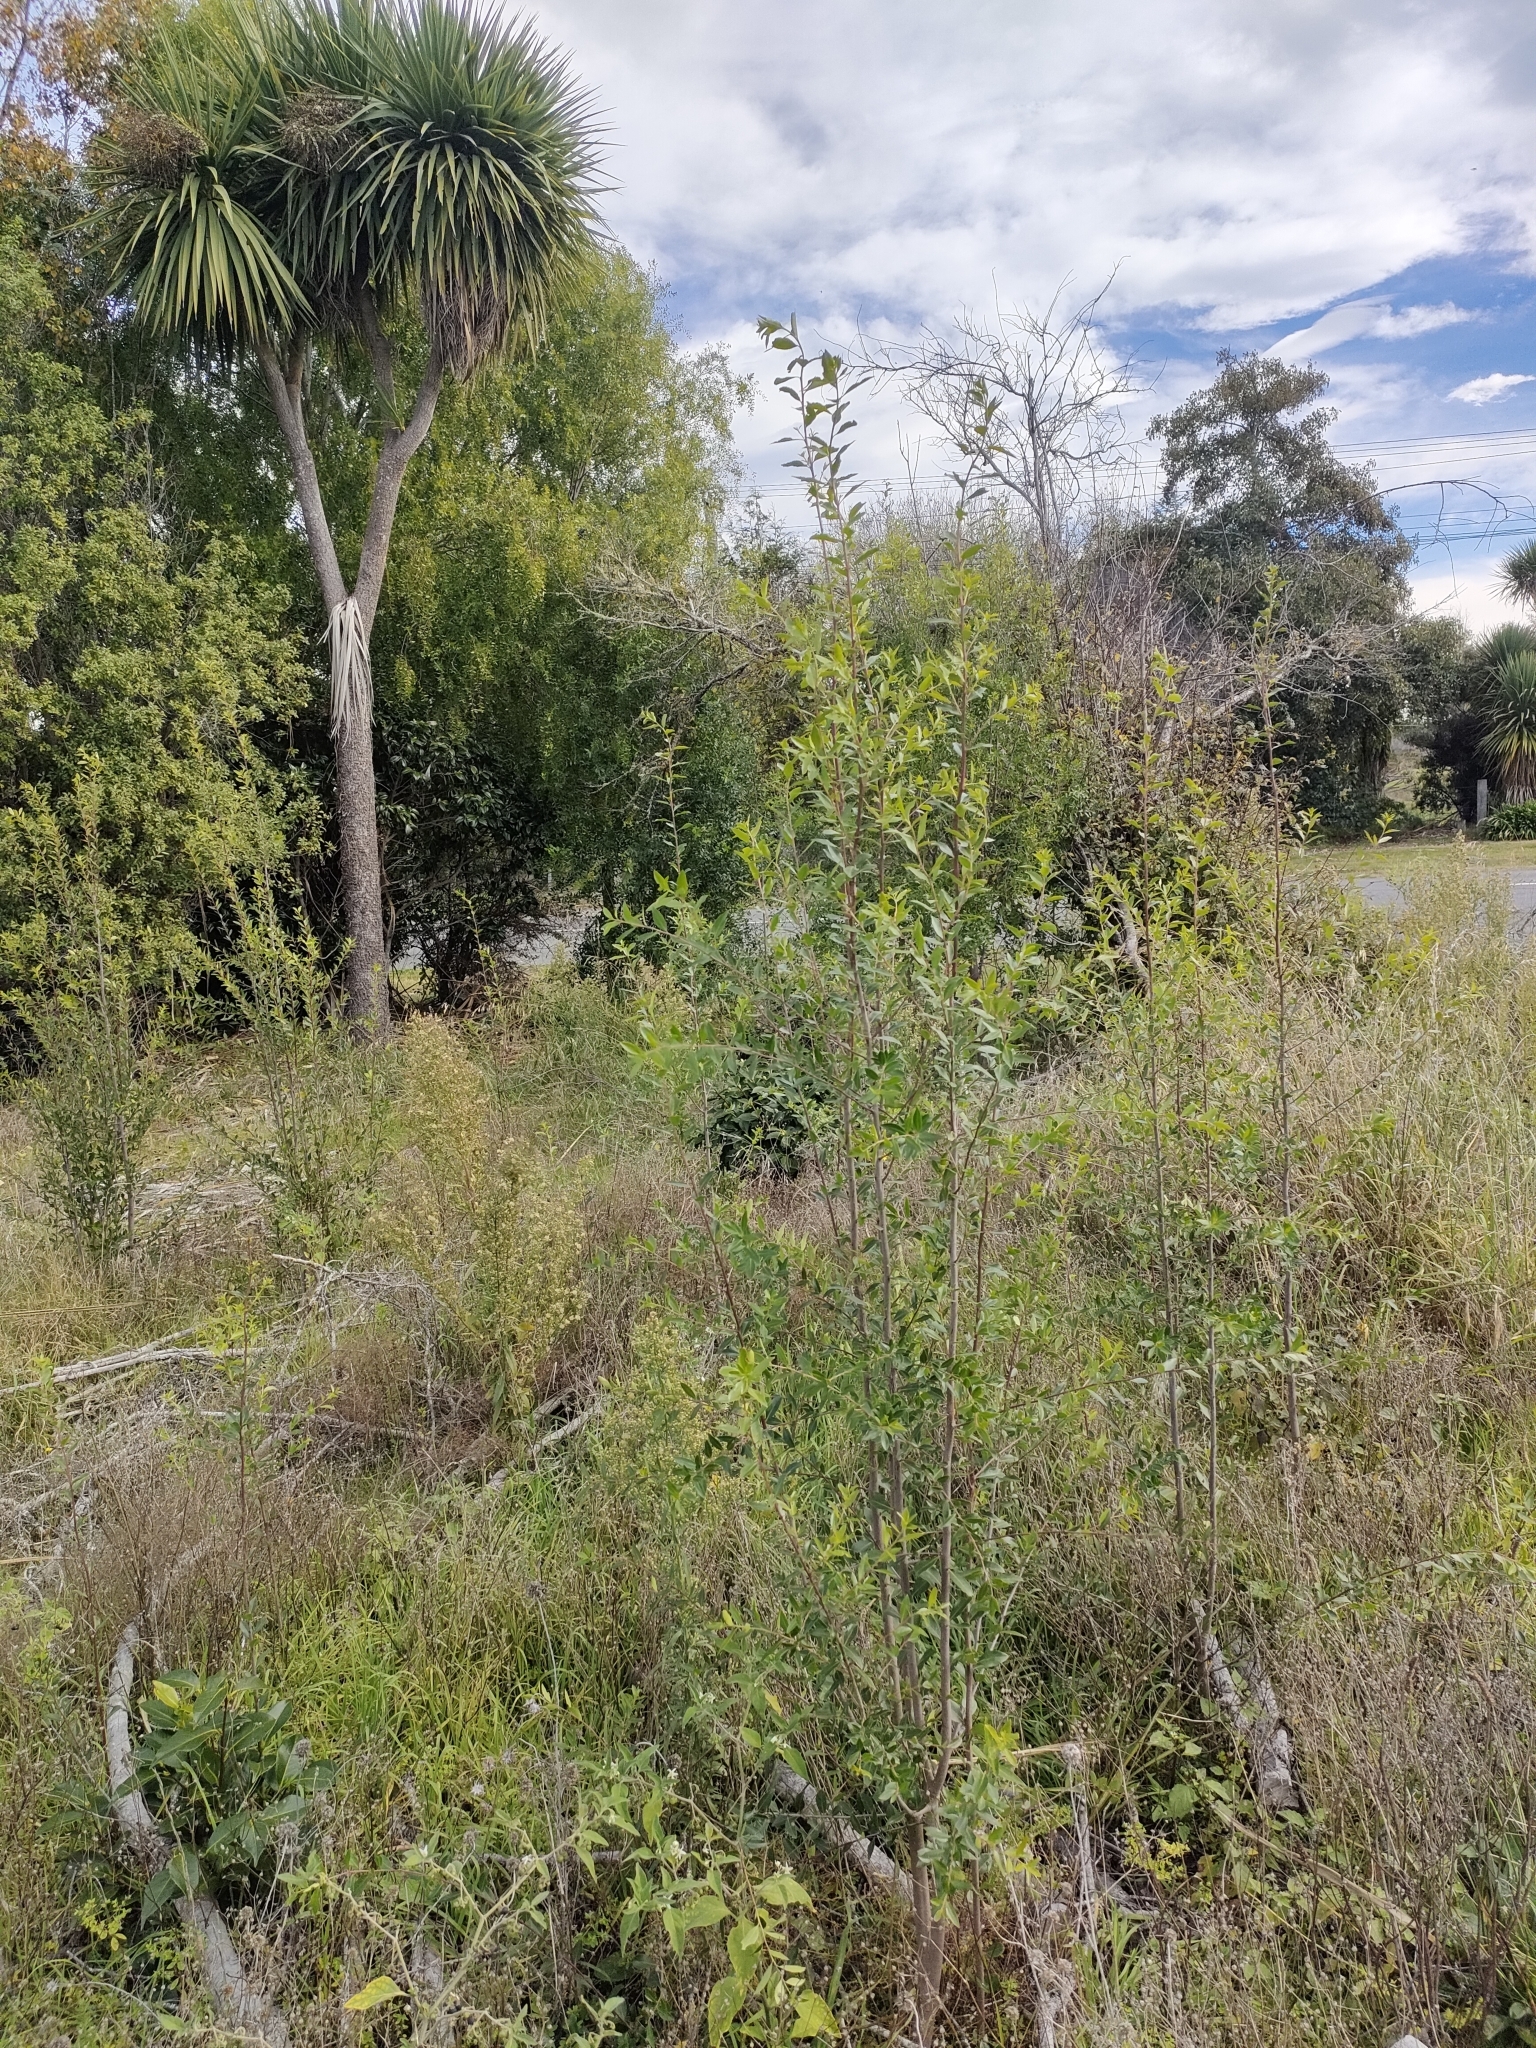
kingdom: Plantae
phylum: Tracheophyta
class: Magnoliopsida
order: Celastrales
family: Celastraceae
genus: Maytenus
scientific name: Maytenus boaria
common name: Mayten
